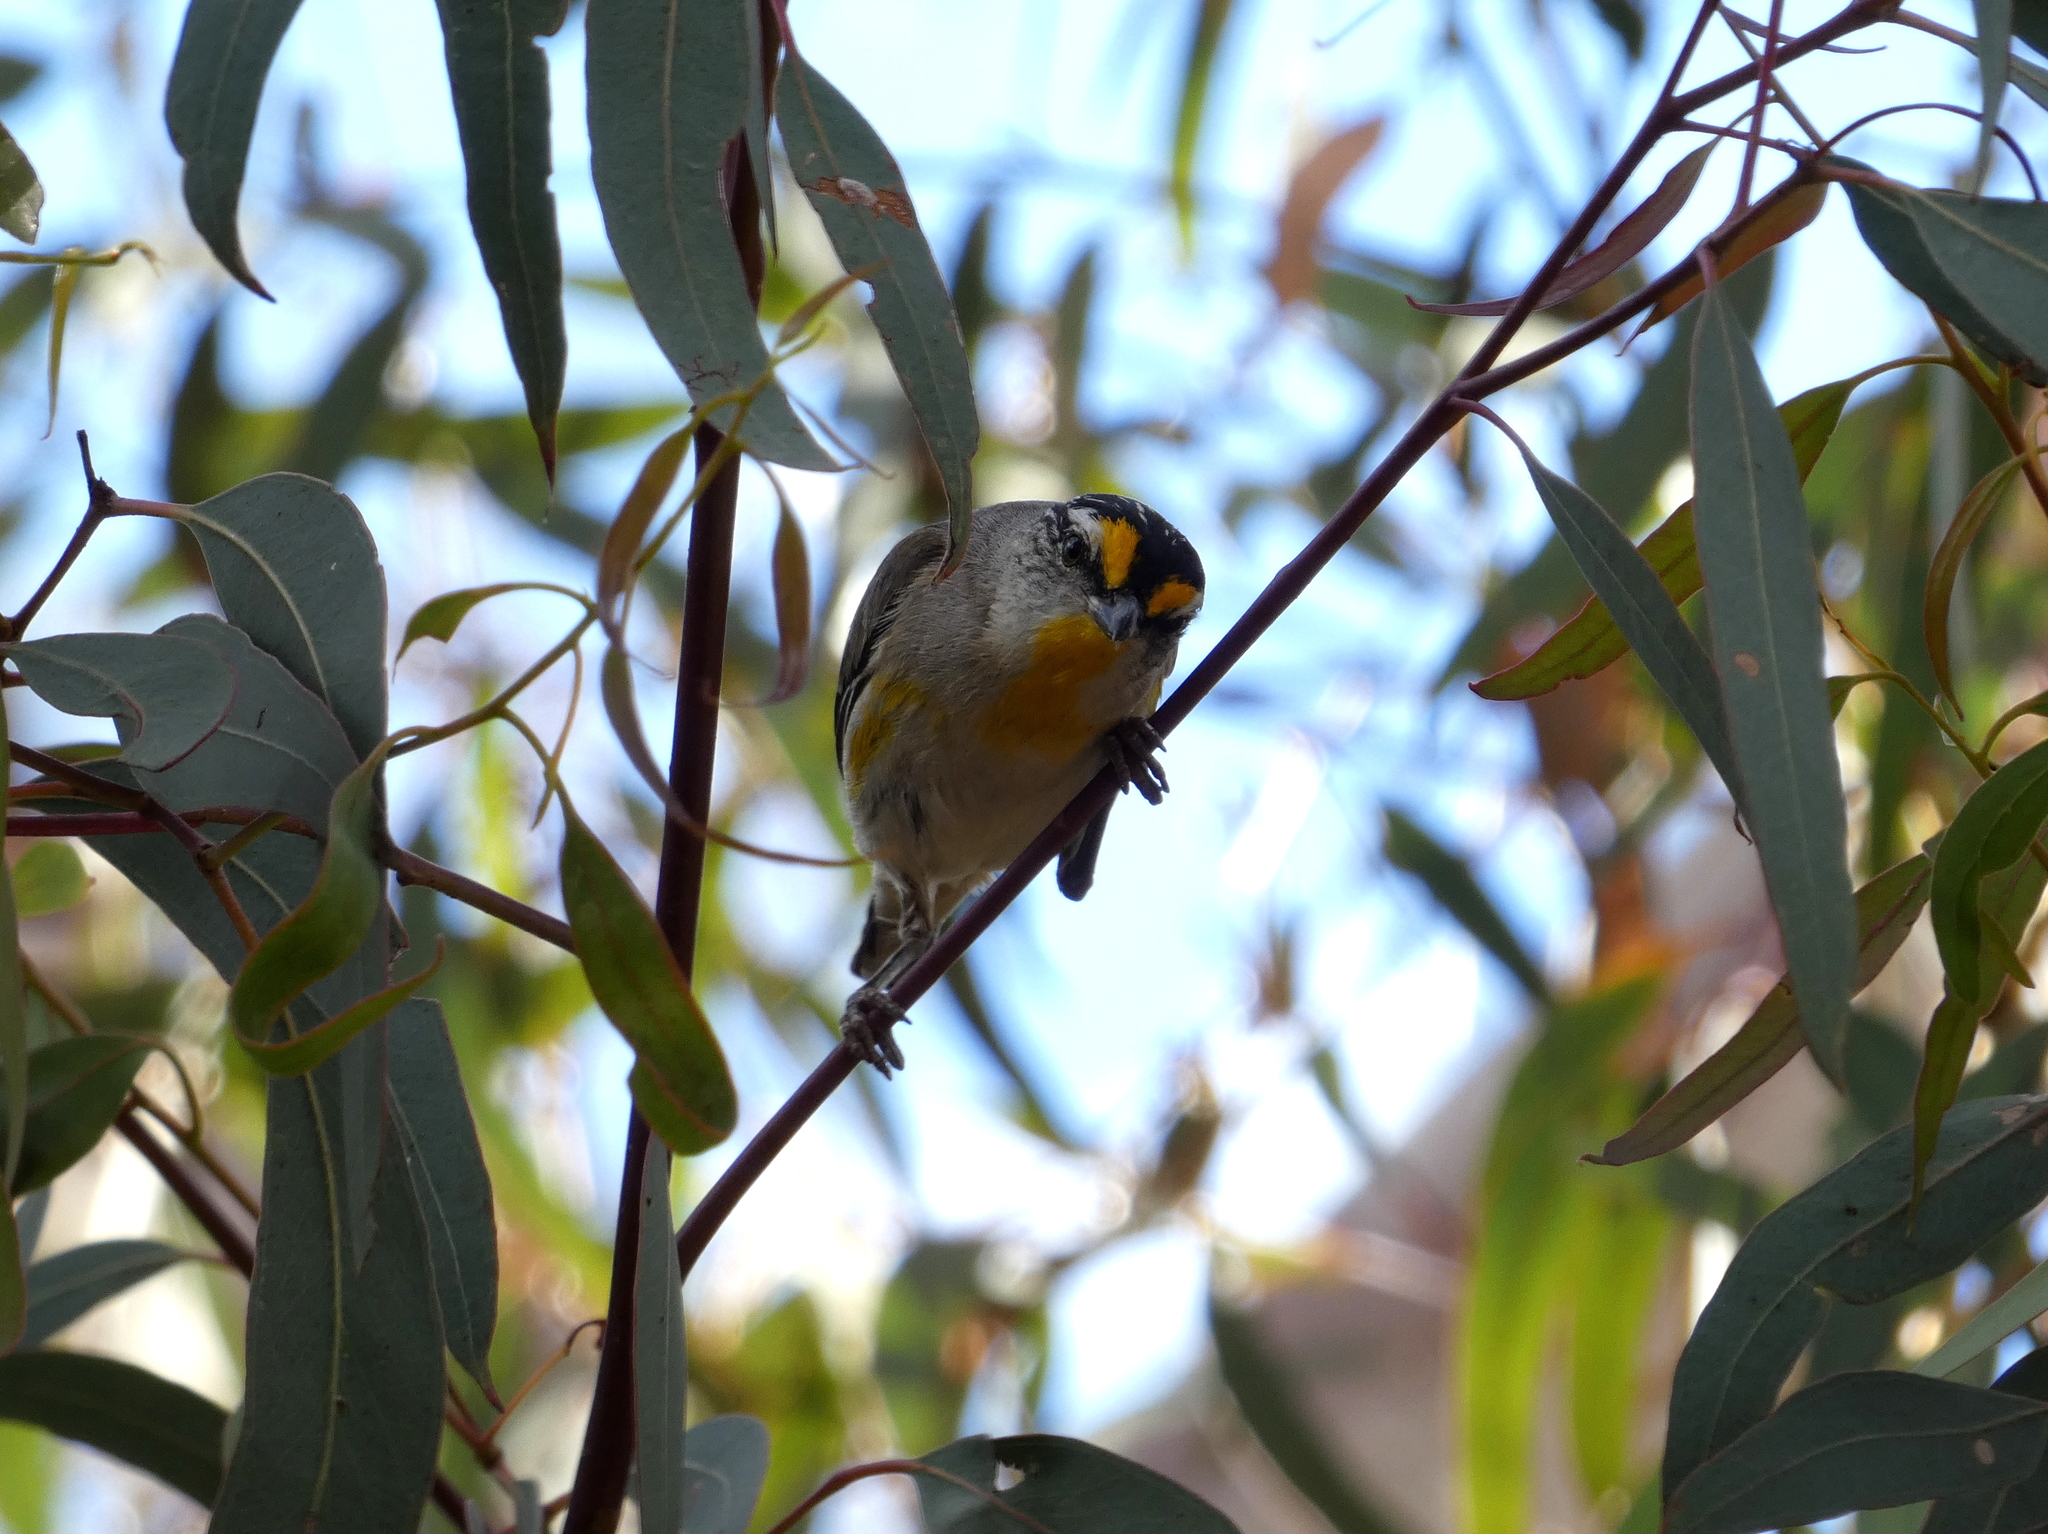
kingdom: Animalia
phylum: Chordata
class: Aves
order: Passeriformes
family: Pardalotidae
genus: Pardalotus
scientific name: Pardalotus striatus
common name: Striated pardalote
